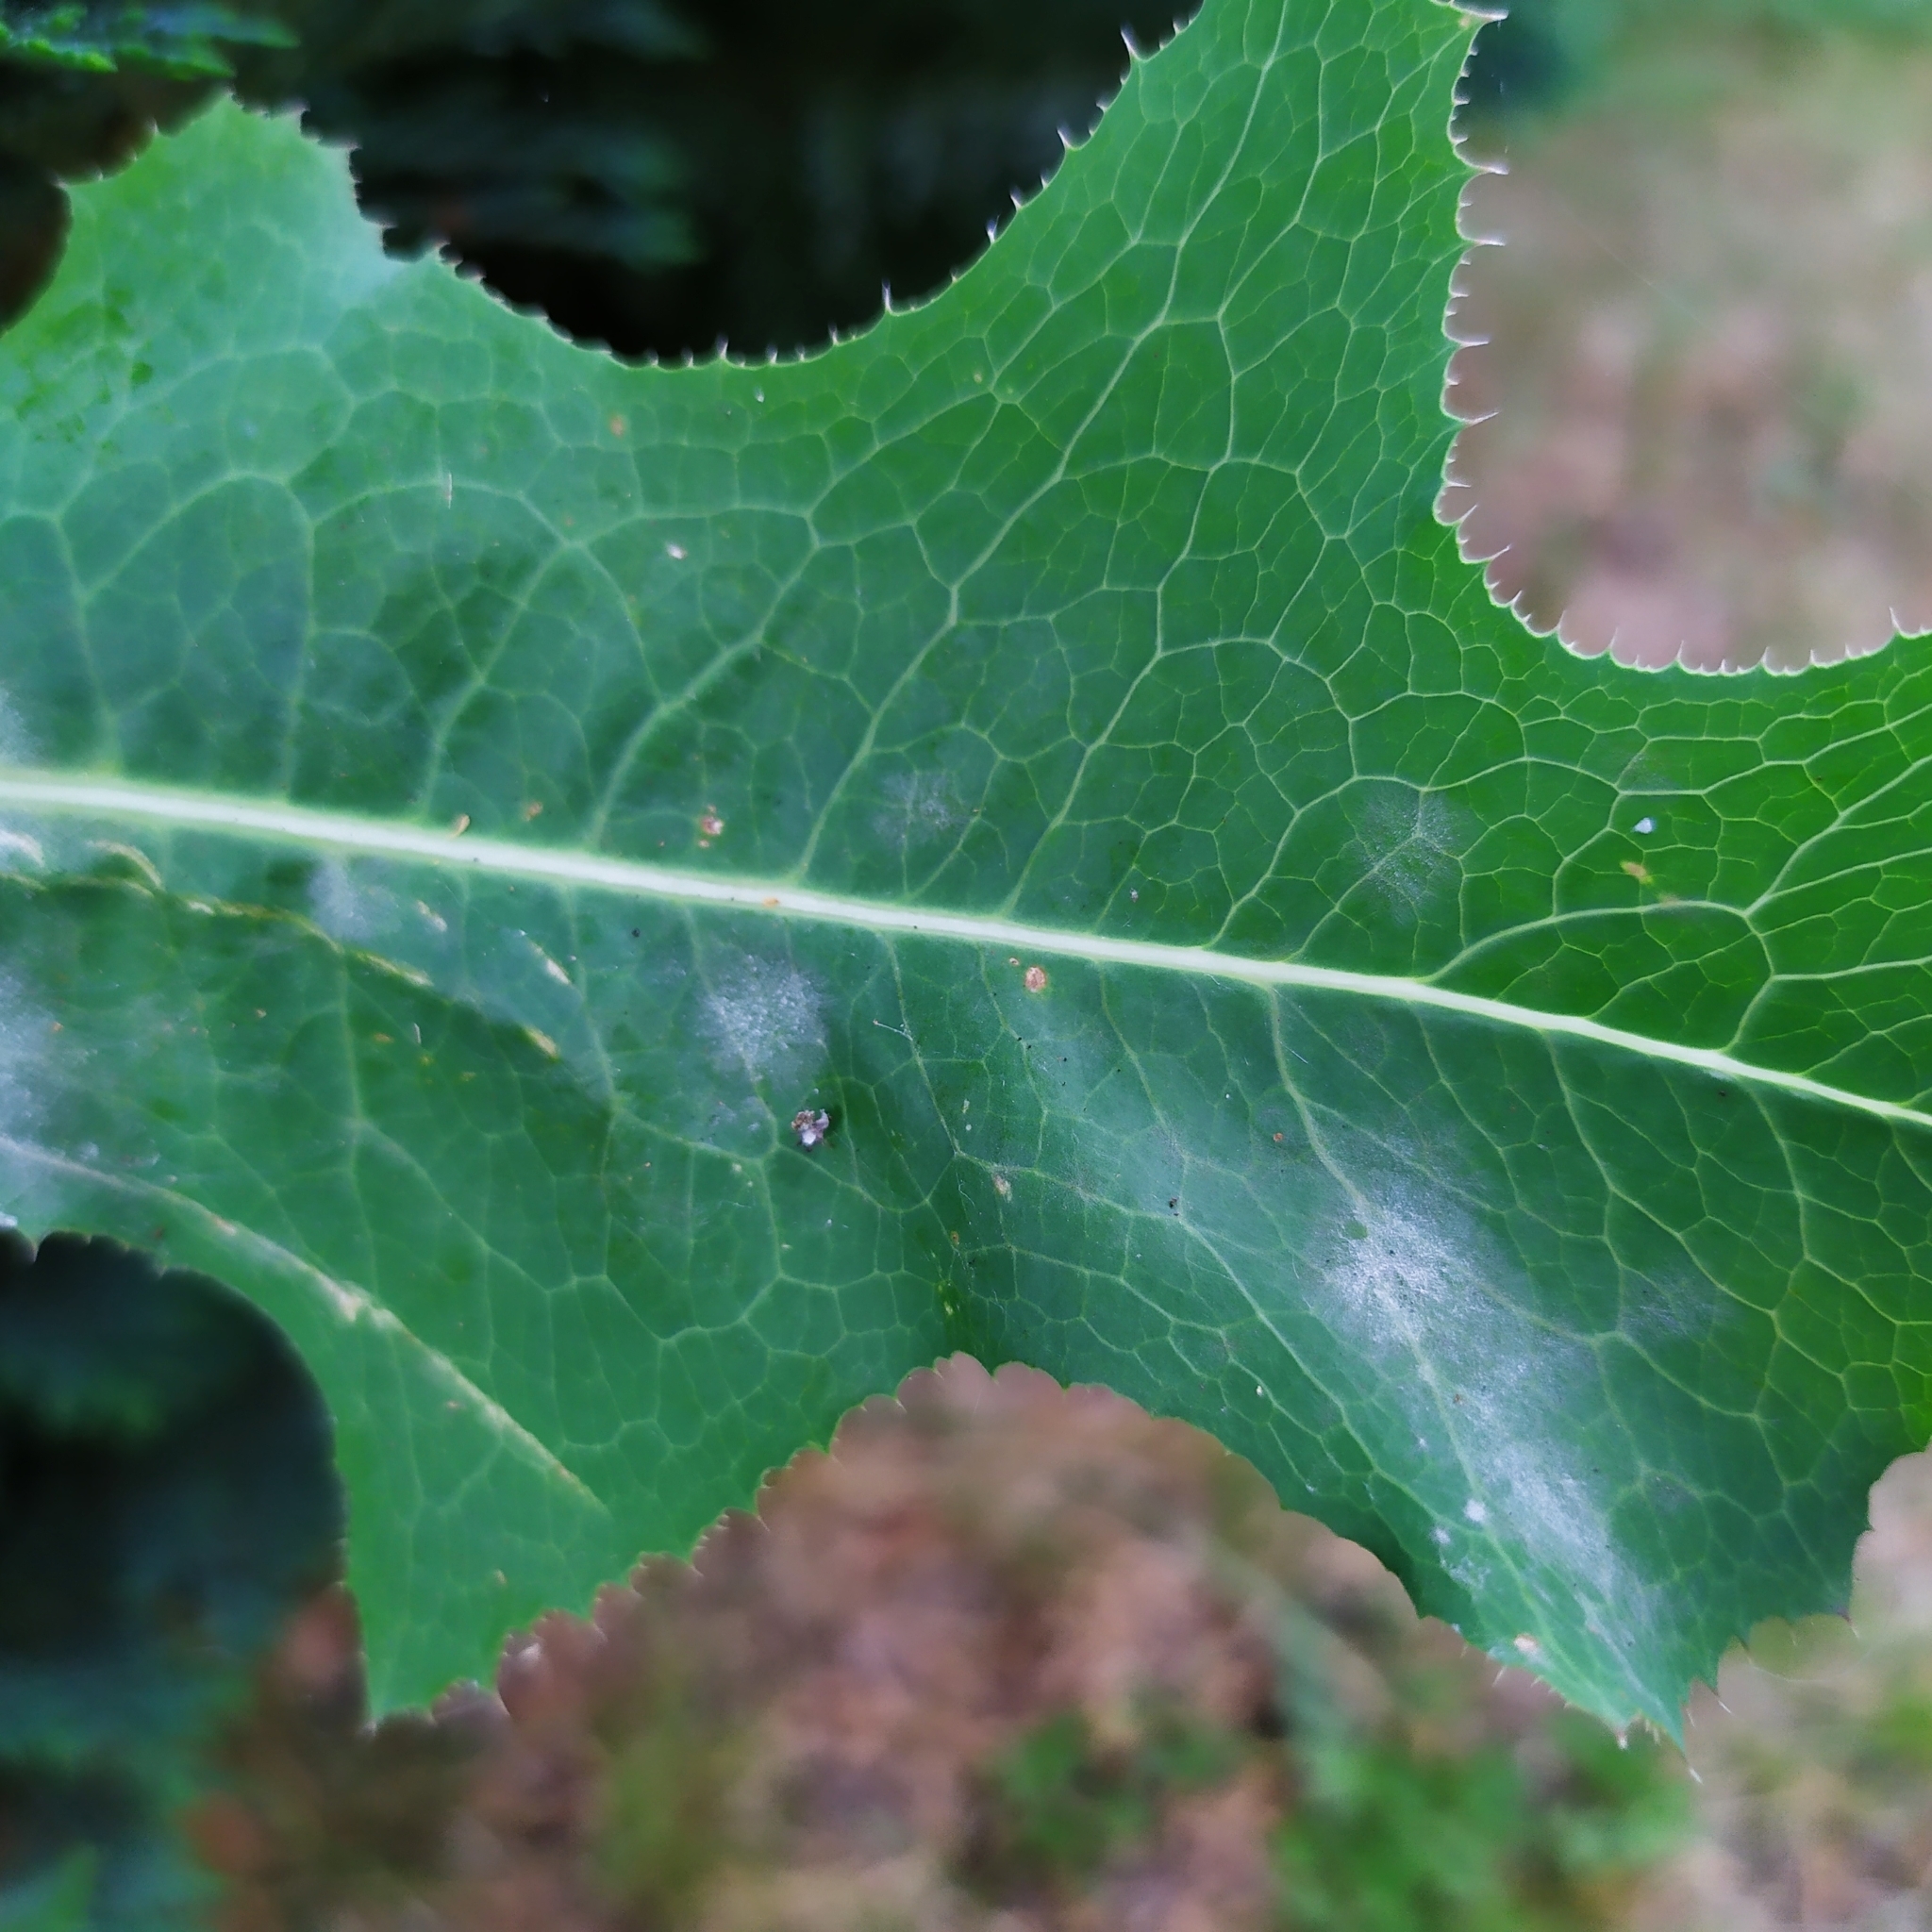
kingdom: Fungi
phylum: Ascomycota
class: Leotiomycetes
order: Helotiales
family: Erysiphaceae
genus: Golovinomyces
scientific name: Golovinomyces bolayi
